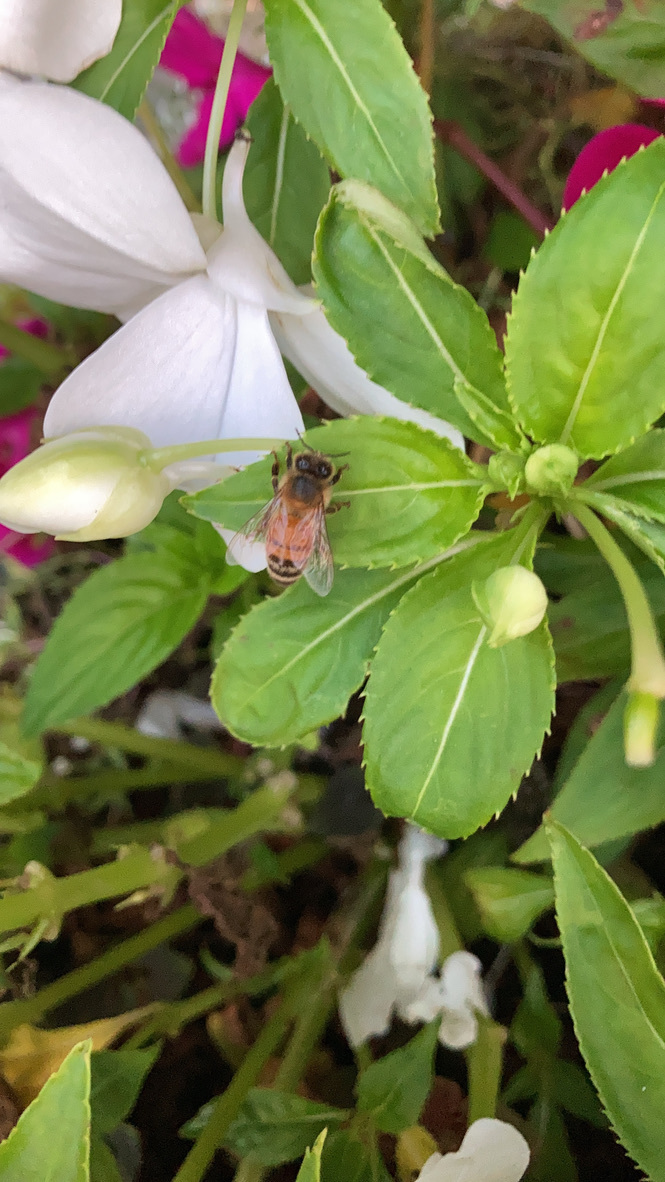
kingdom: Animalia
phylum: Arthropoda
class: Insecta
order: Hymenoptera
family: Apidae
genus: Apis
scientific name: Apis mellifera
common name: Honey bee
